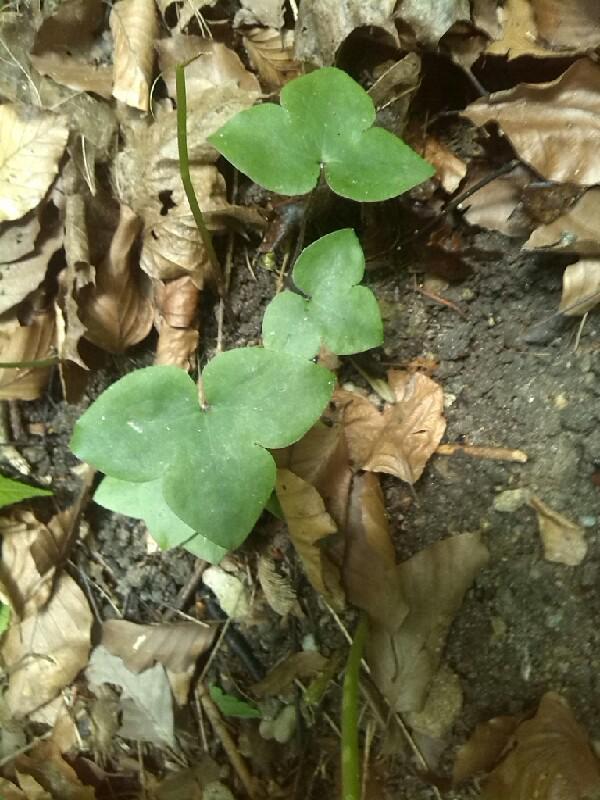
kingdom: Plantae
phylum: Tracheophyta
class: Magnoliopsida
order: Ranunculales
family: Ranunculaceae
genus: Hepatica
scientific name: Hepatica nobilis
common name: Liverleaf
